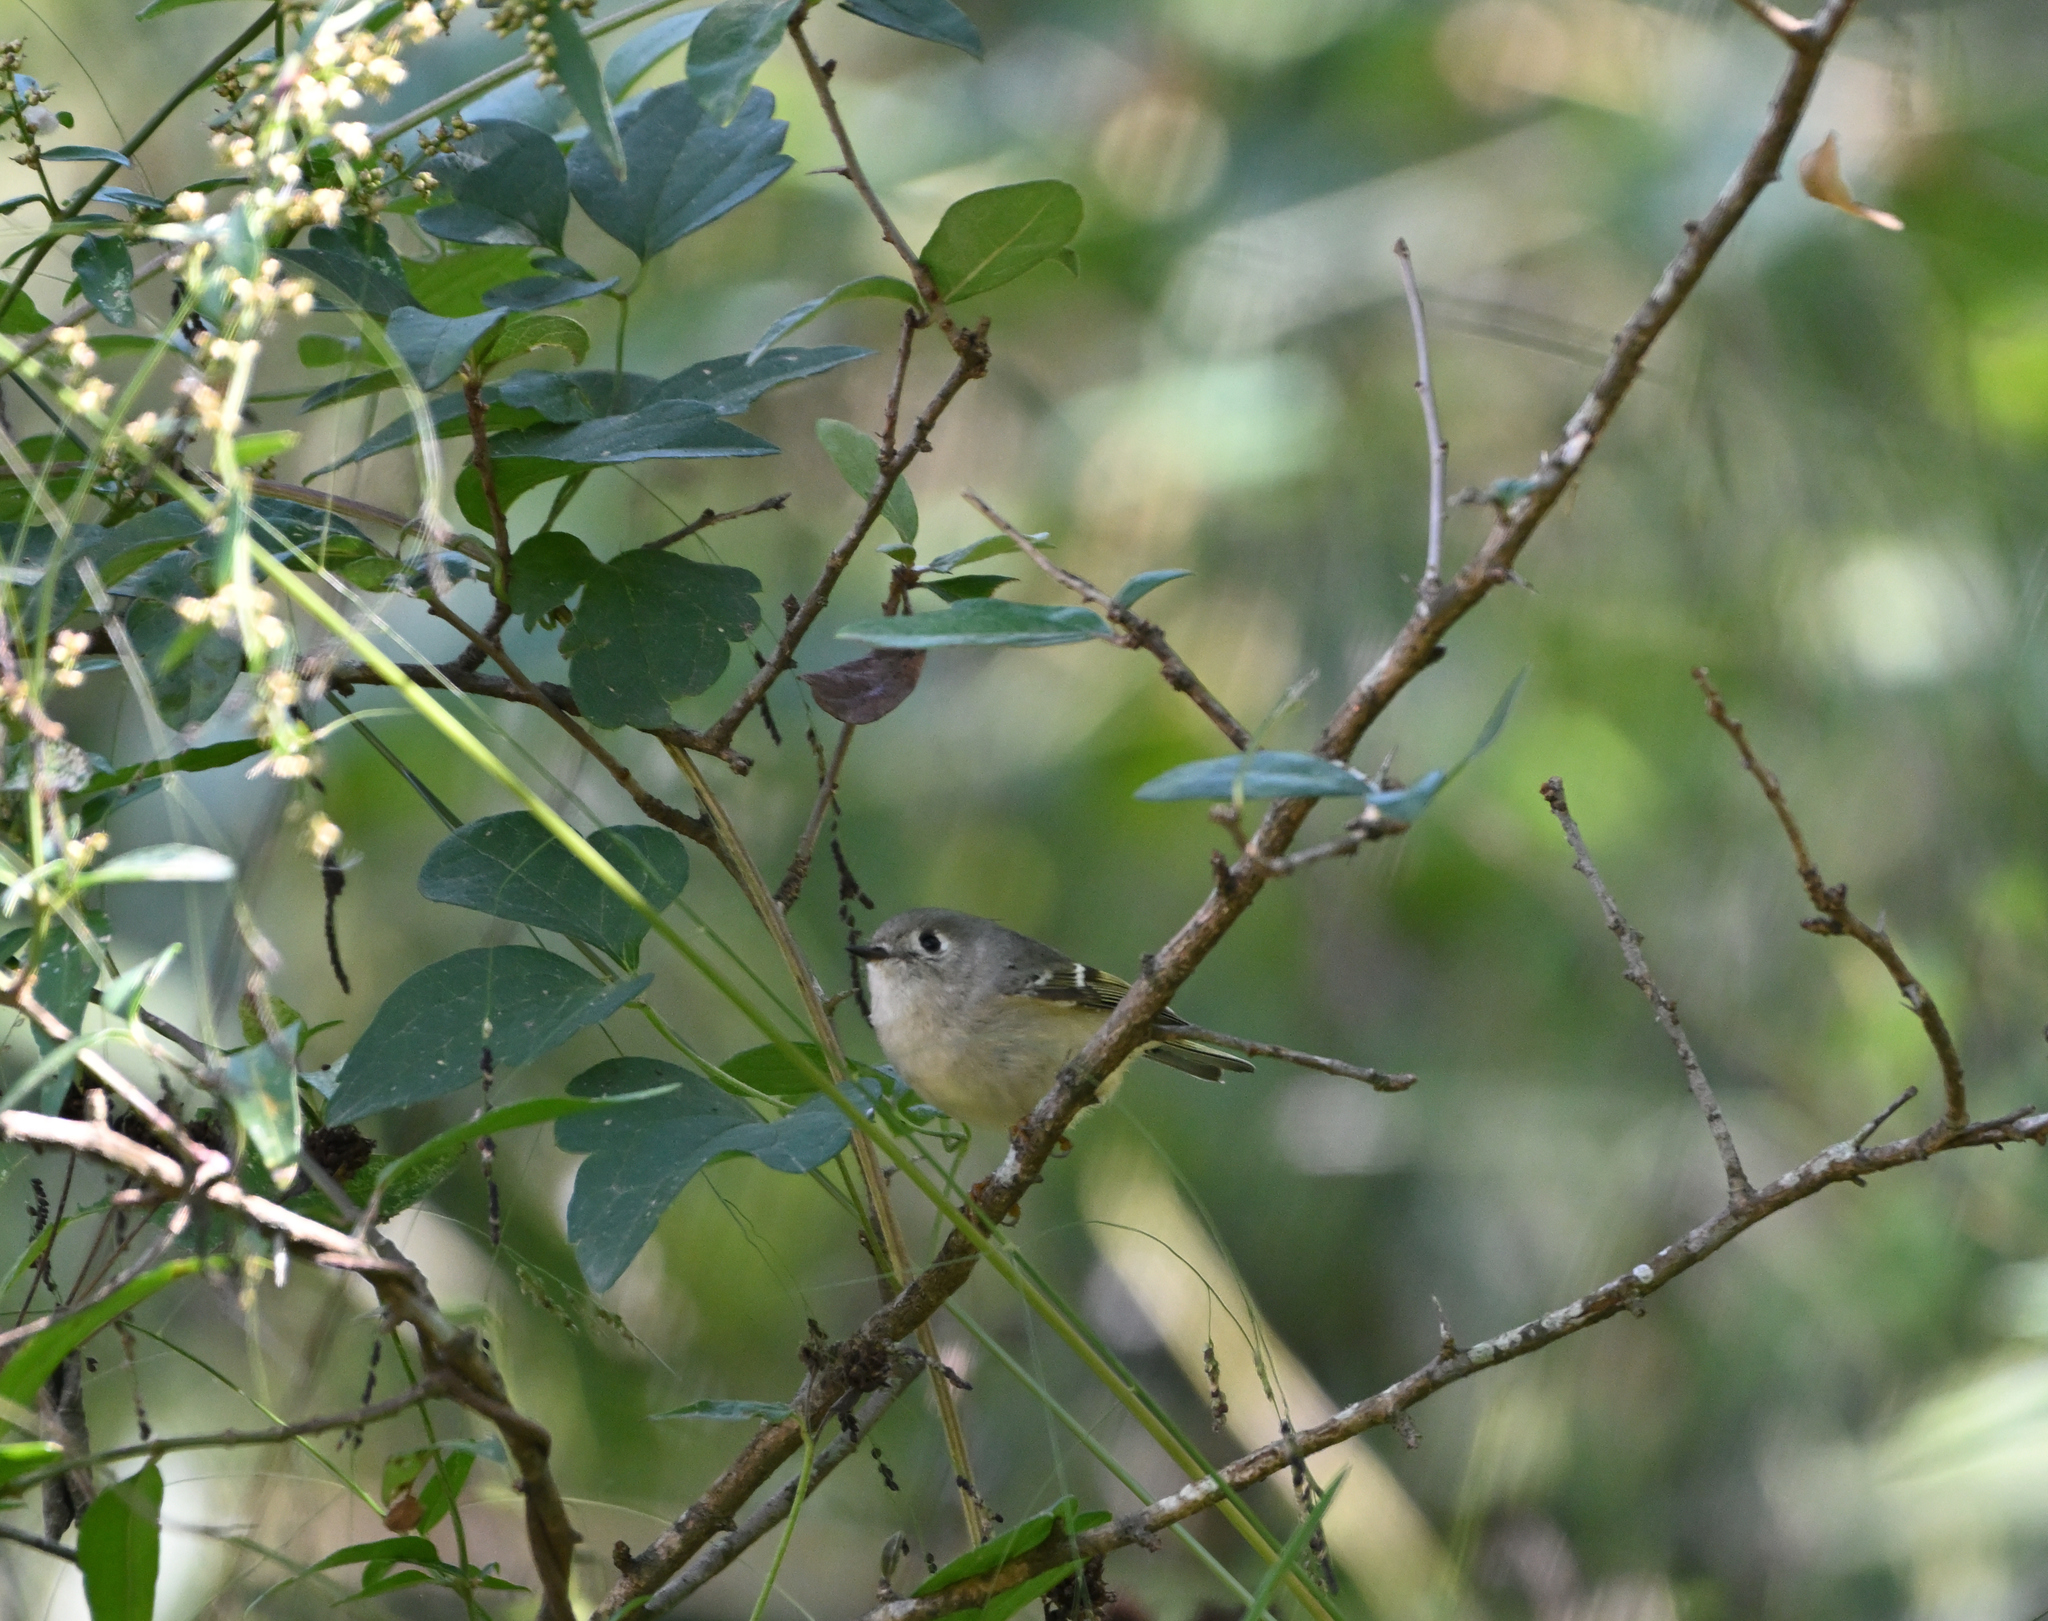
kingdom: Animalia
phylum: Chordata
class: Aves
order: Passeriformes
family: Vireonidae
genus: Vireo
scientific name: Vireo huttoni
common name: Hutton's vireo
